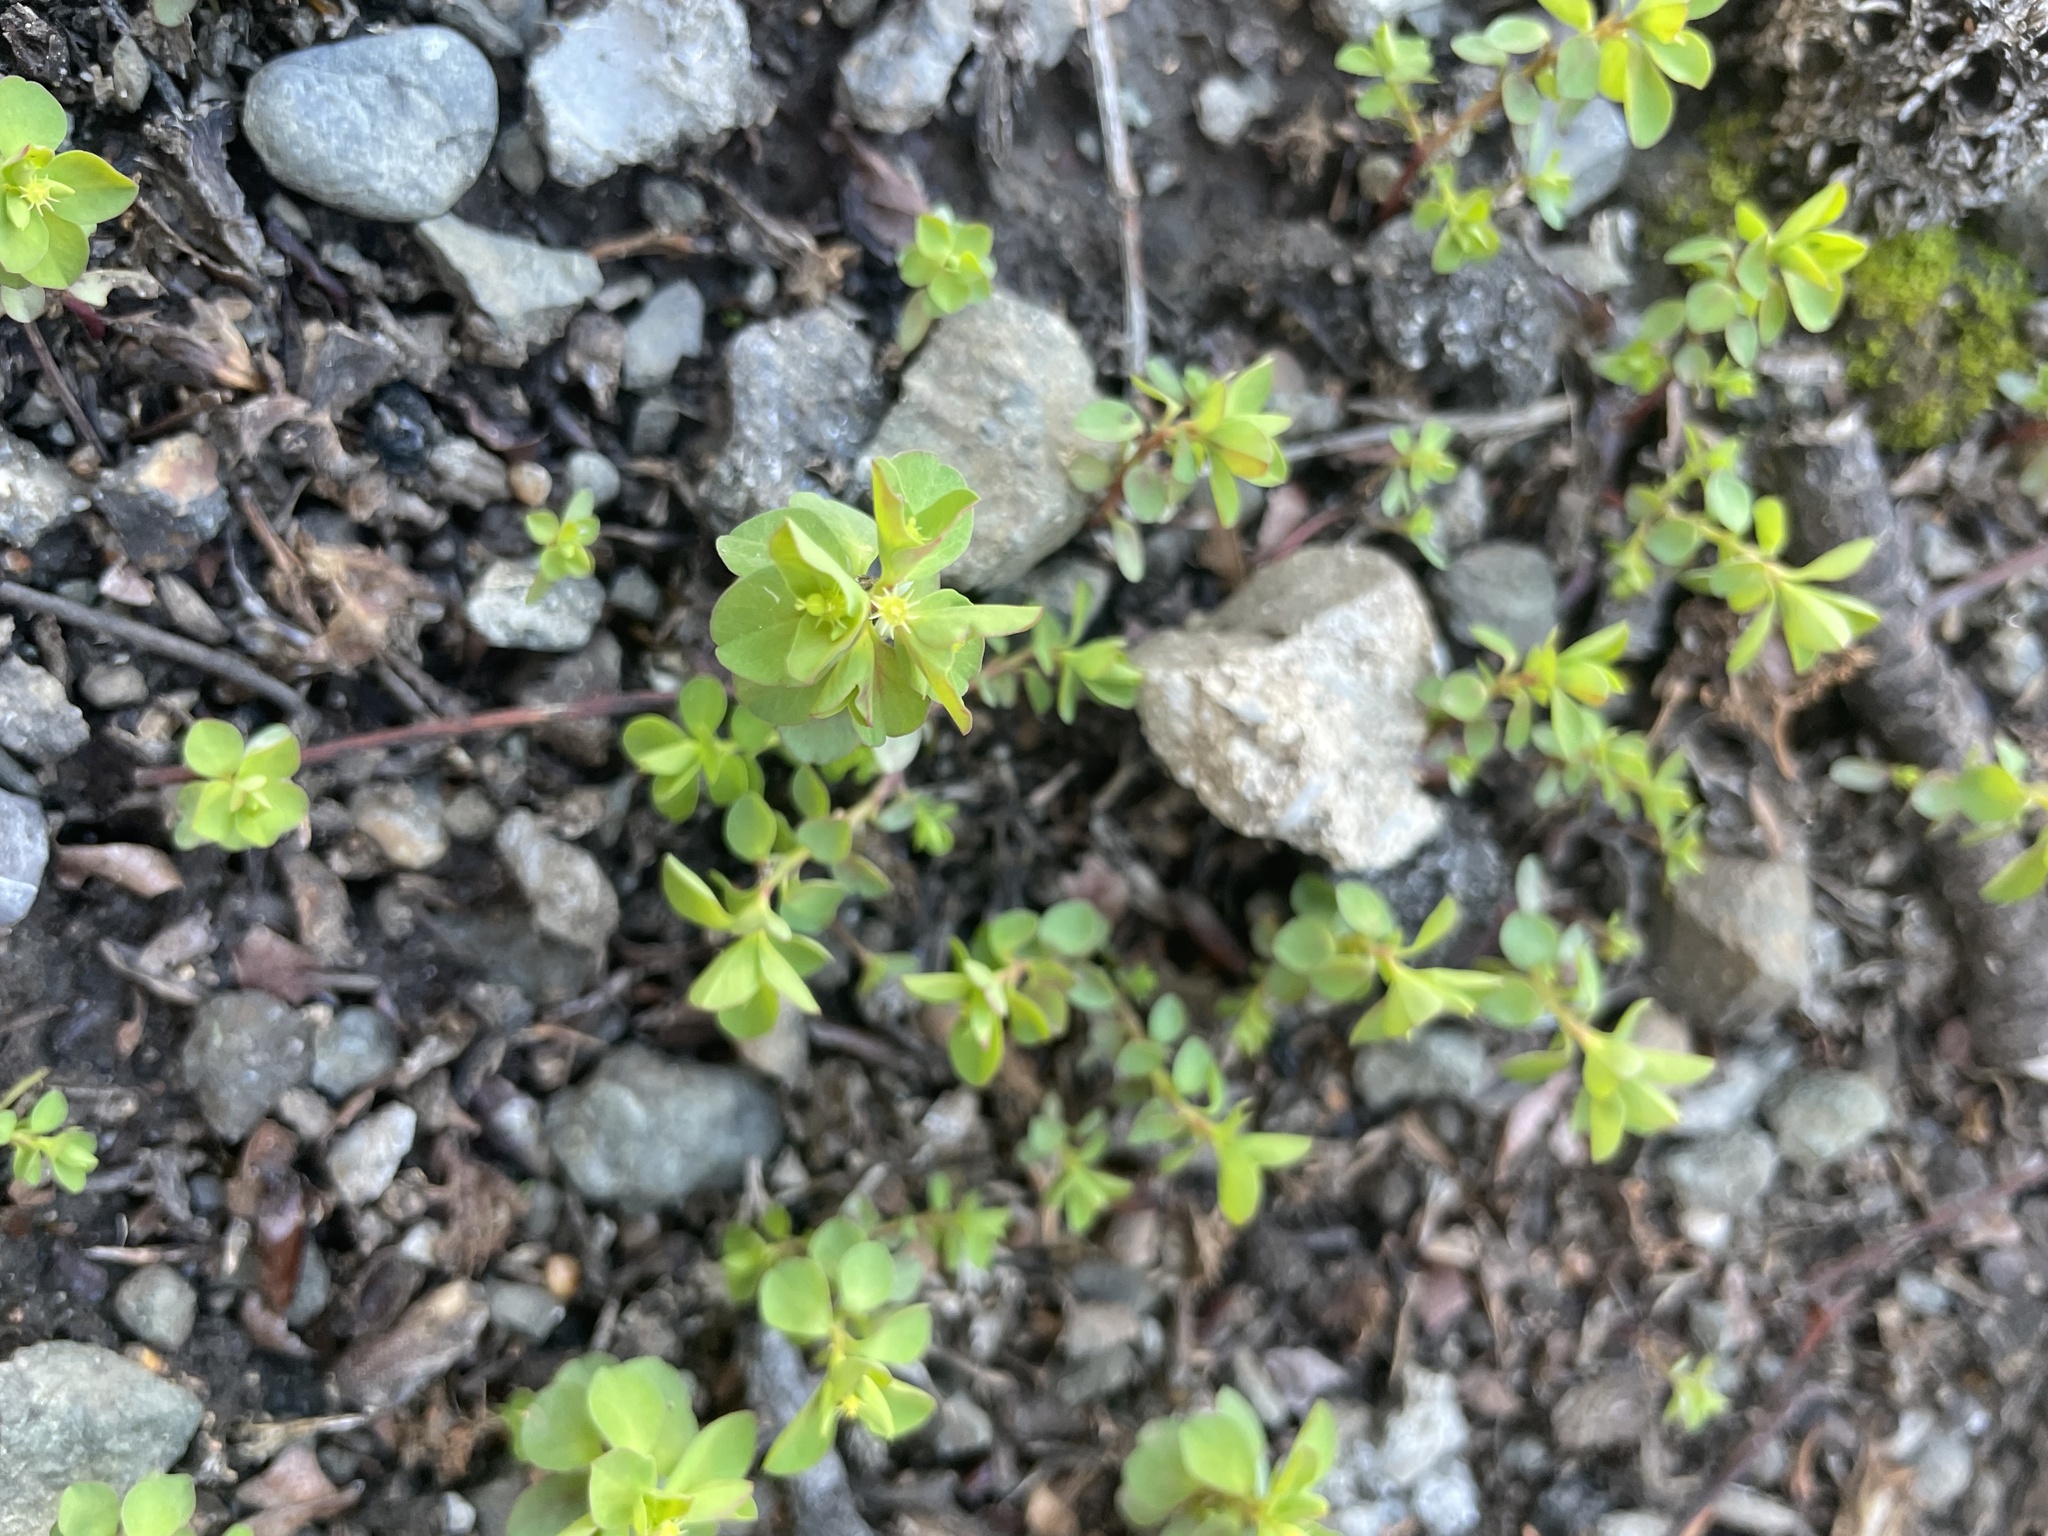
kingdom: Plantae
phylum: Tracheophyta
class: Magnoliopsida
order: Malpighiales
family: Euphorbiaceae
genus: Euphorbia
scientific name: Euphorbia peplus
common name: Petty spurge
